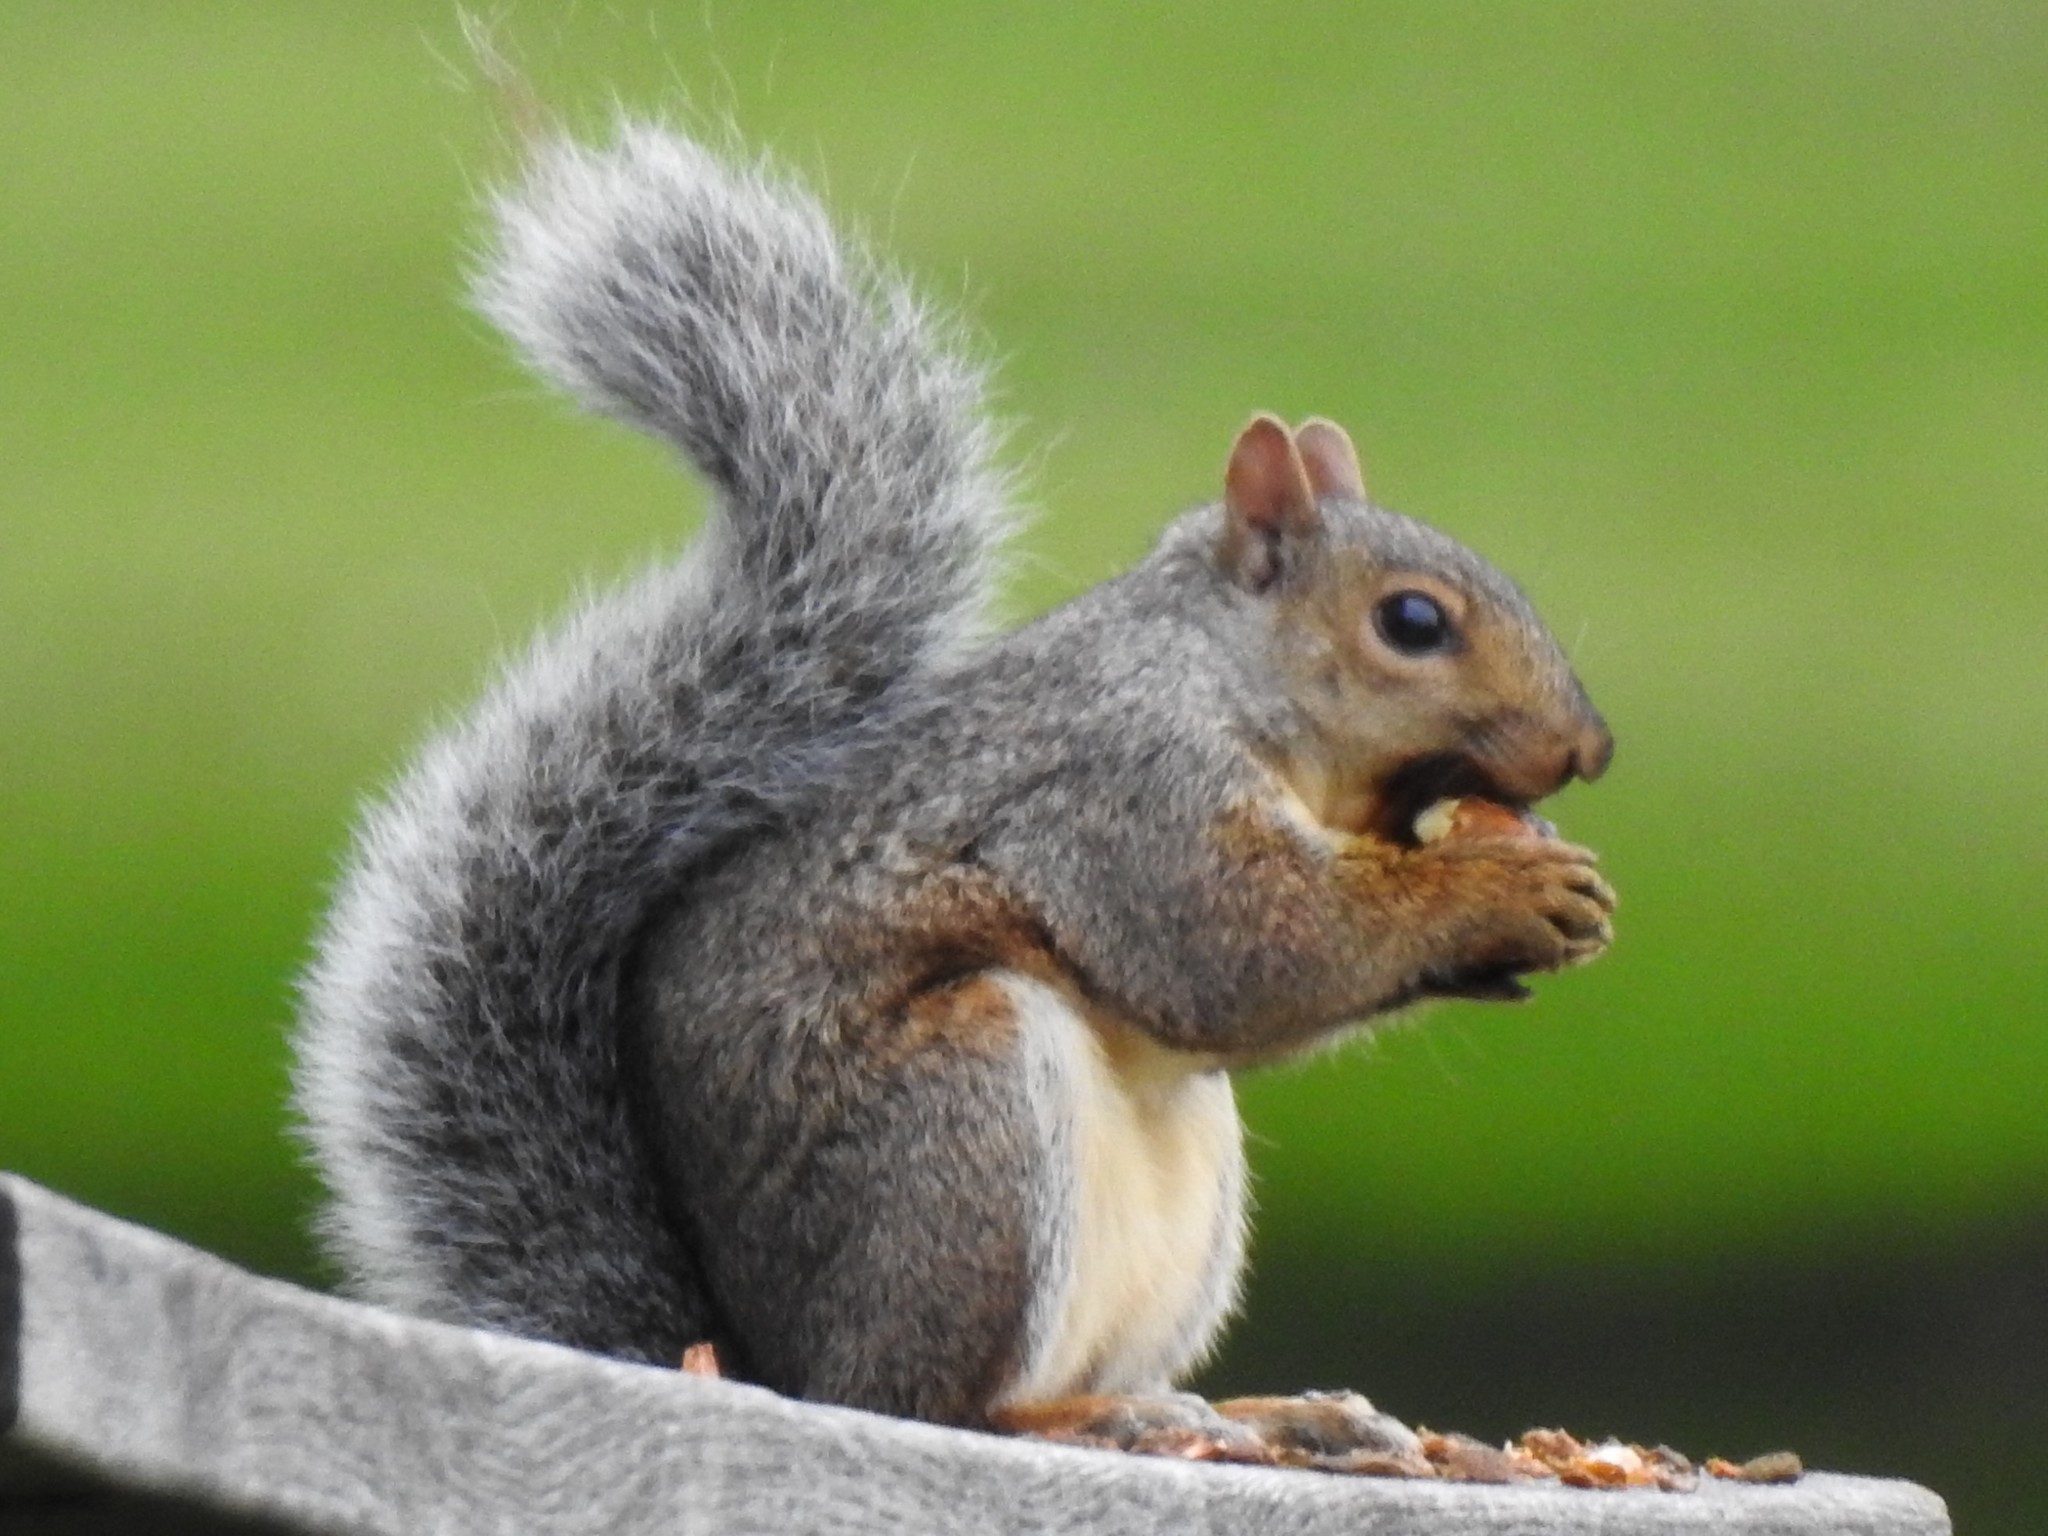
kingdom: Animalia
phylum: Chordata
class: Mammalia
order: Rodentia
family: Sciuridae
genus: Sciurus
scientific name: Sciurus carolinensis
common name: Eastern gray squirrel
